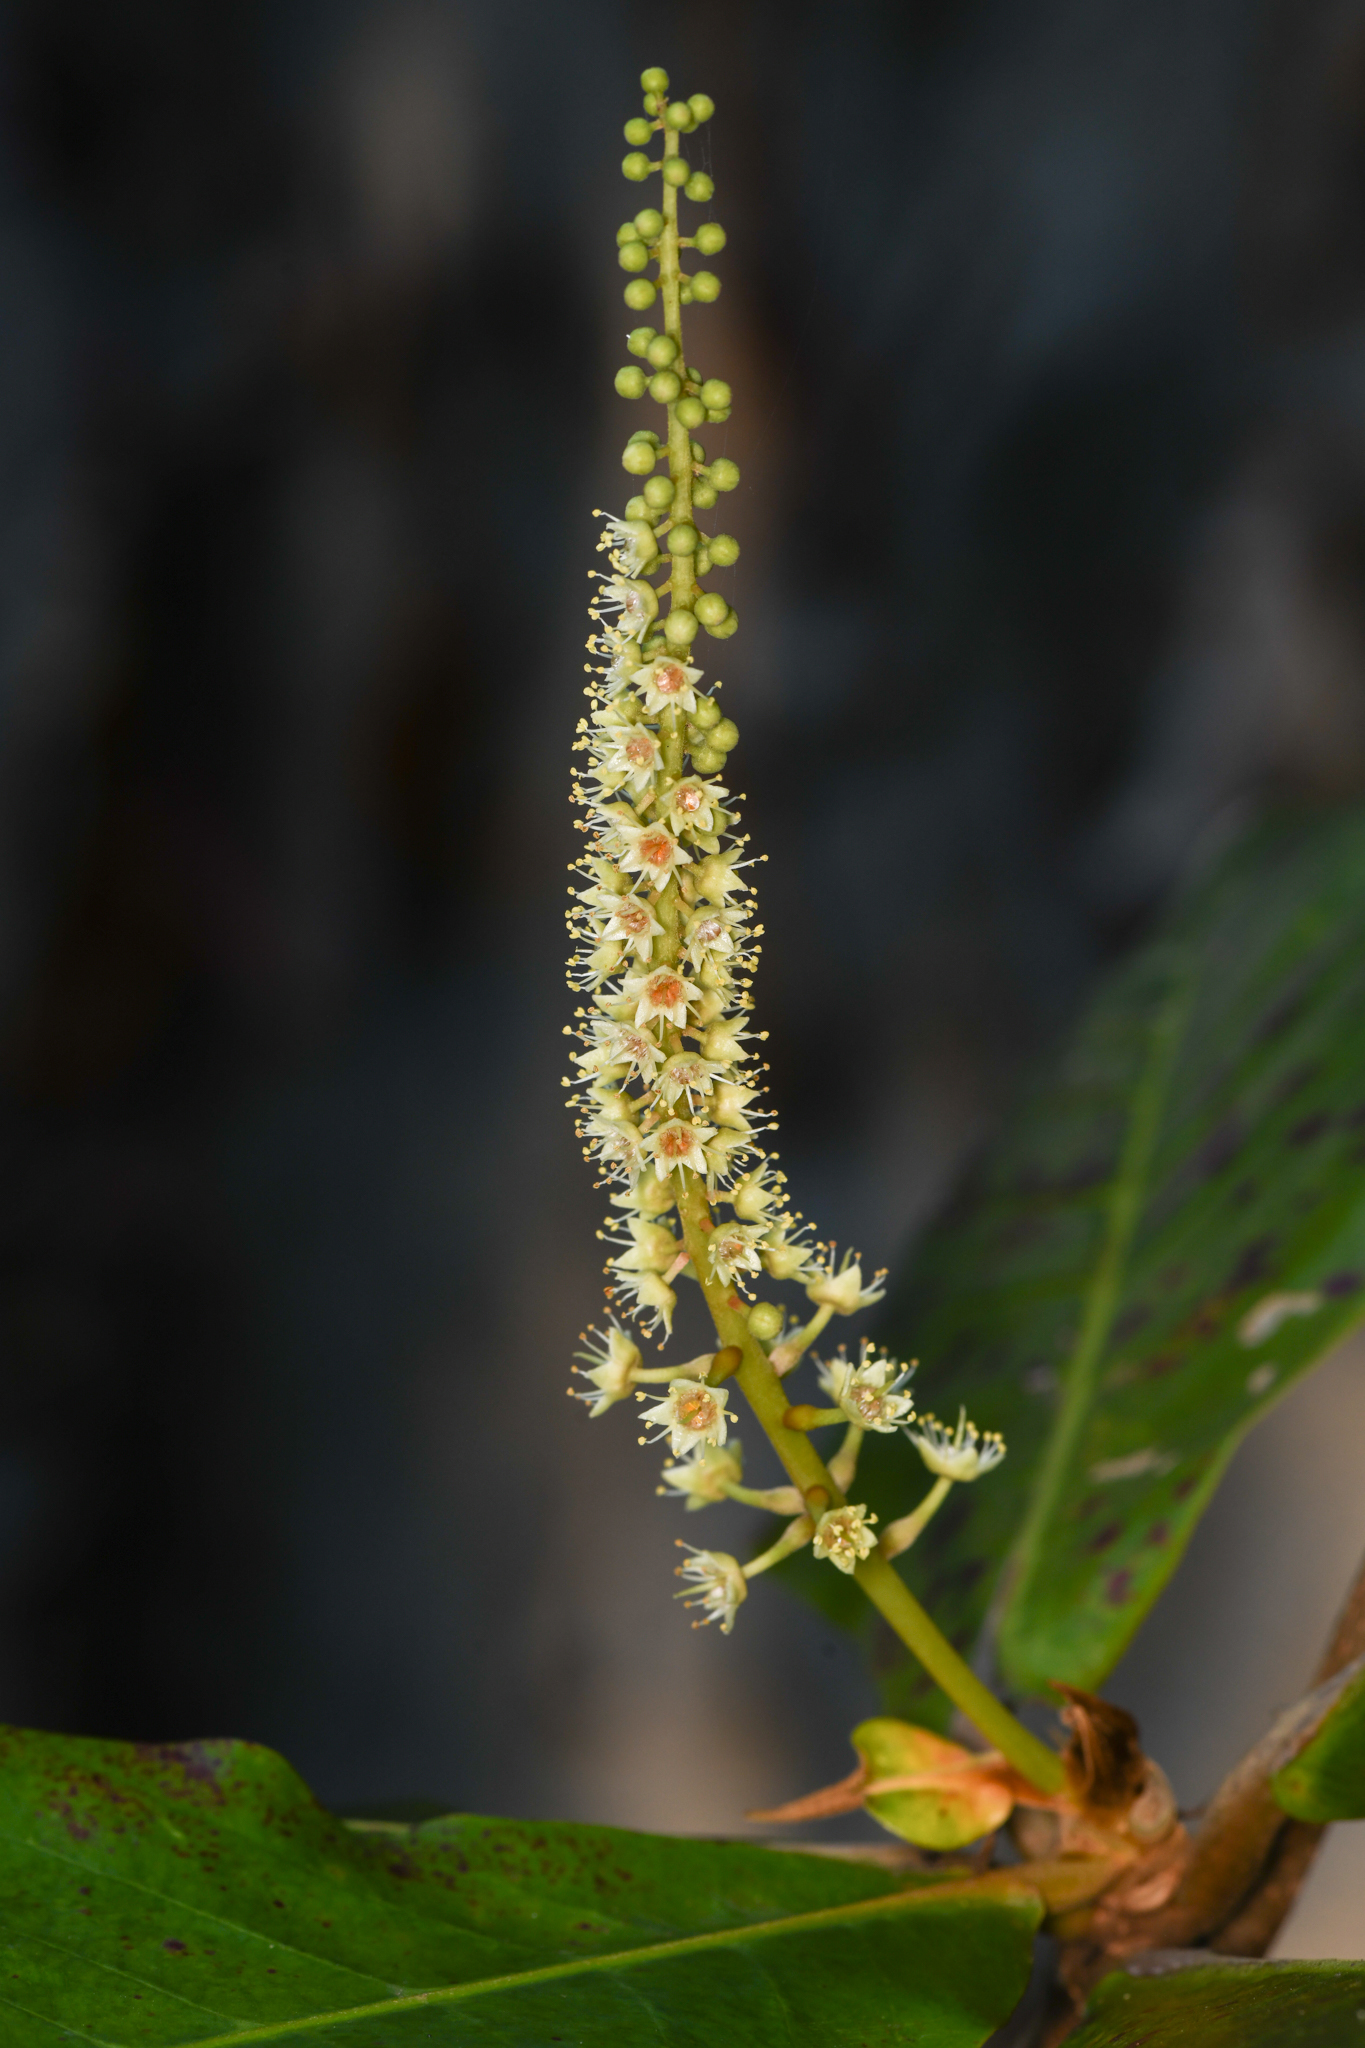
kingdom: Plantae
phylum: Tracheophyta
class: Magnoliopsida
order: Myrtales
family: Combretaceae
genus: Terminalia
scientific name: Terminalia catappa
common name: Tropical almond
